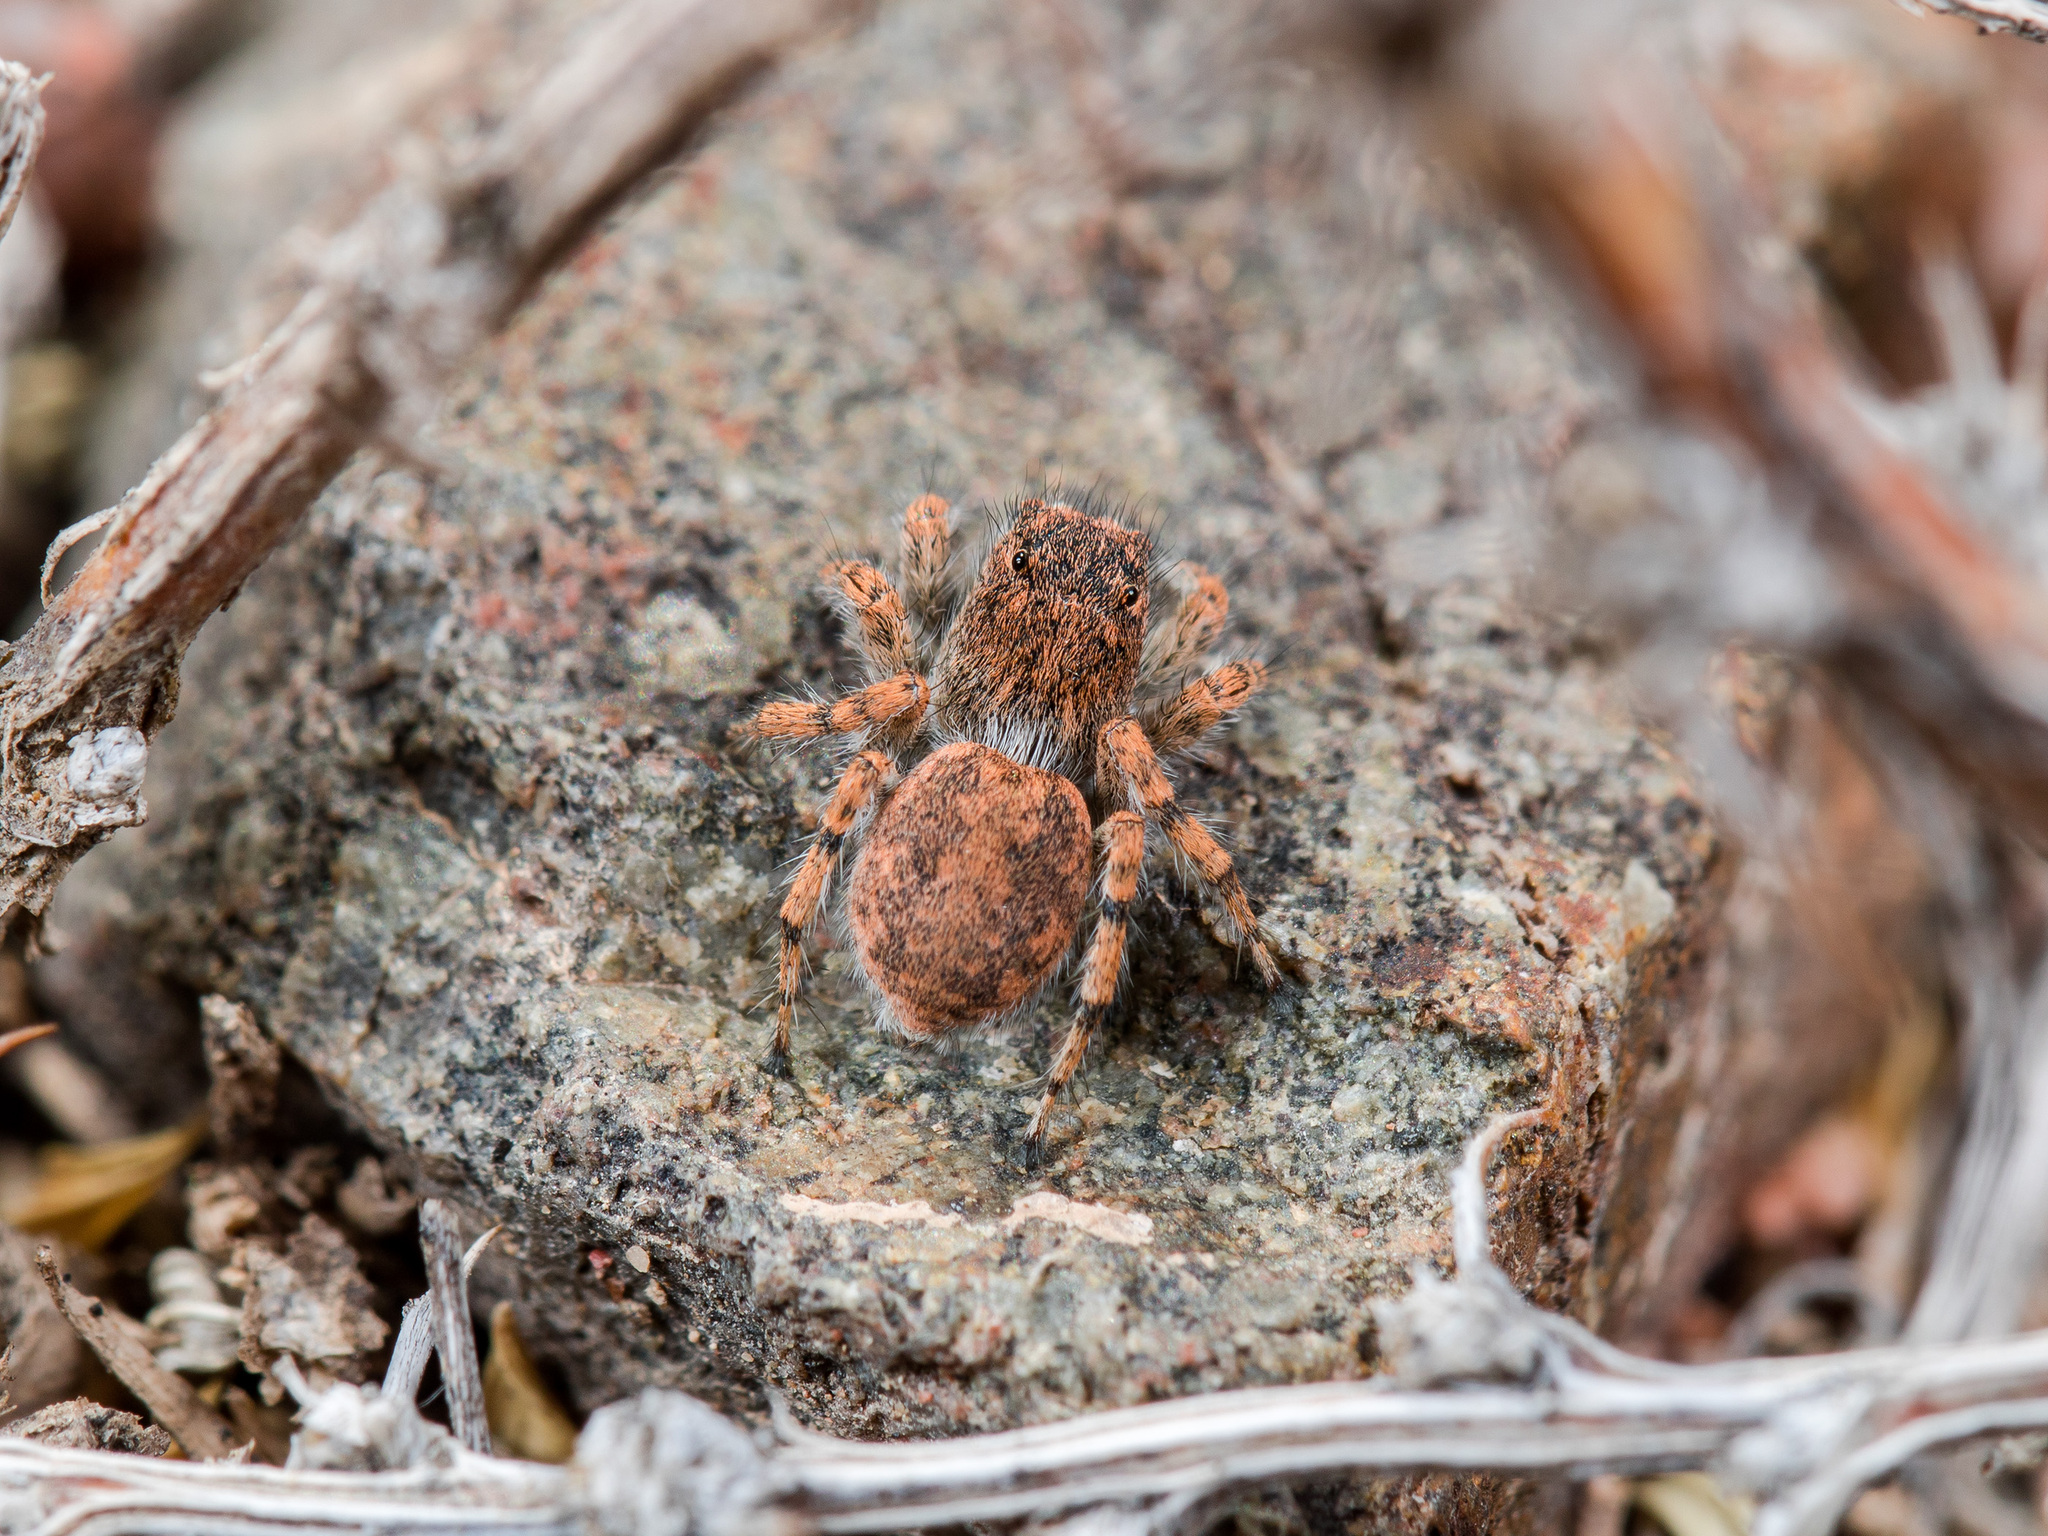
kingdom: Animalia
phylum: Arthropoda
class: Arachnida
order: Araneae
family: Salticidae
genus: Aelurillus
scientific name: Aelurillus dubatolovi
